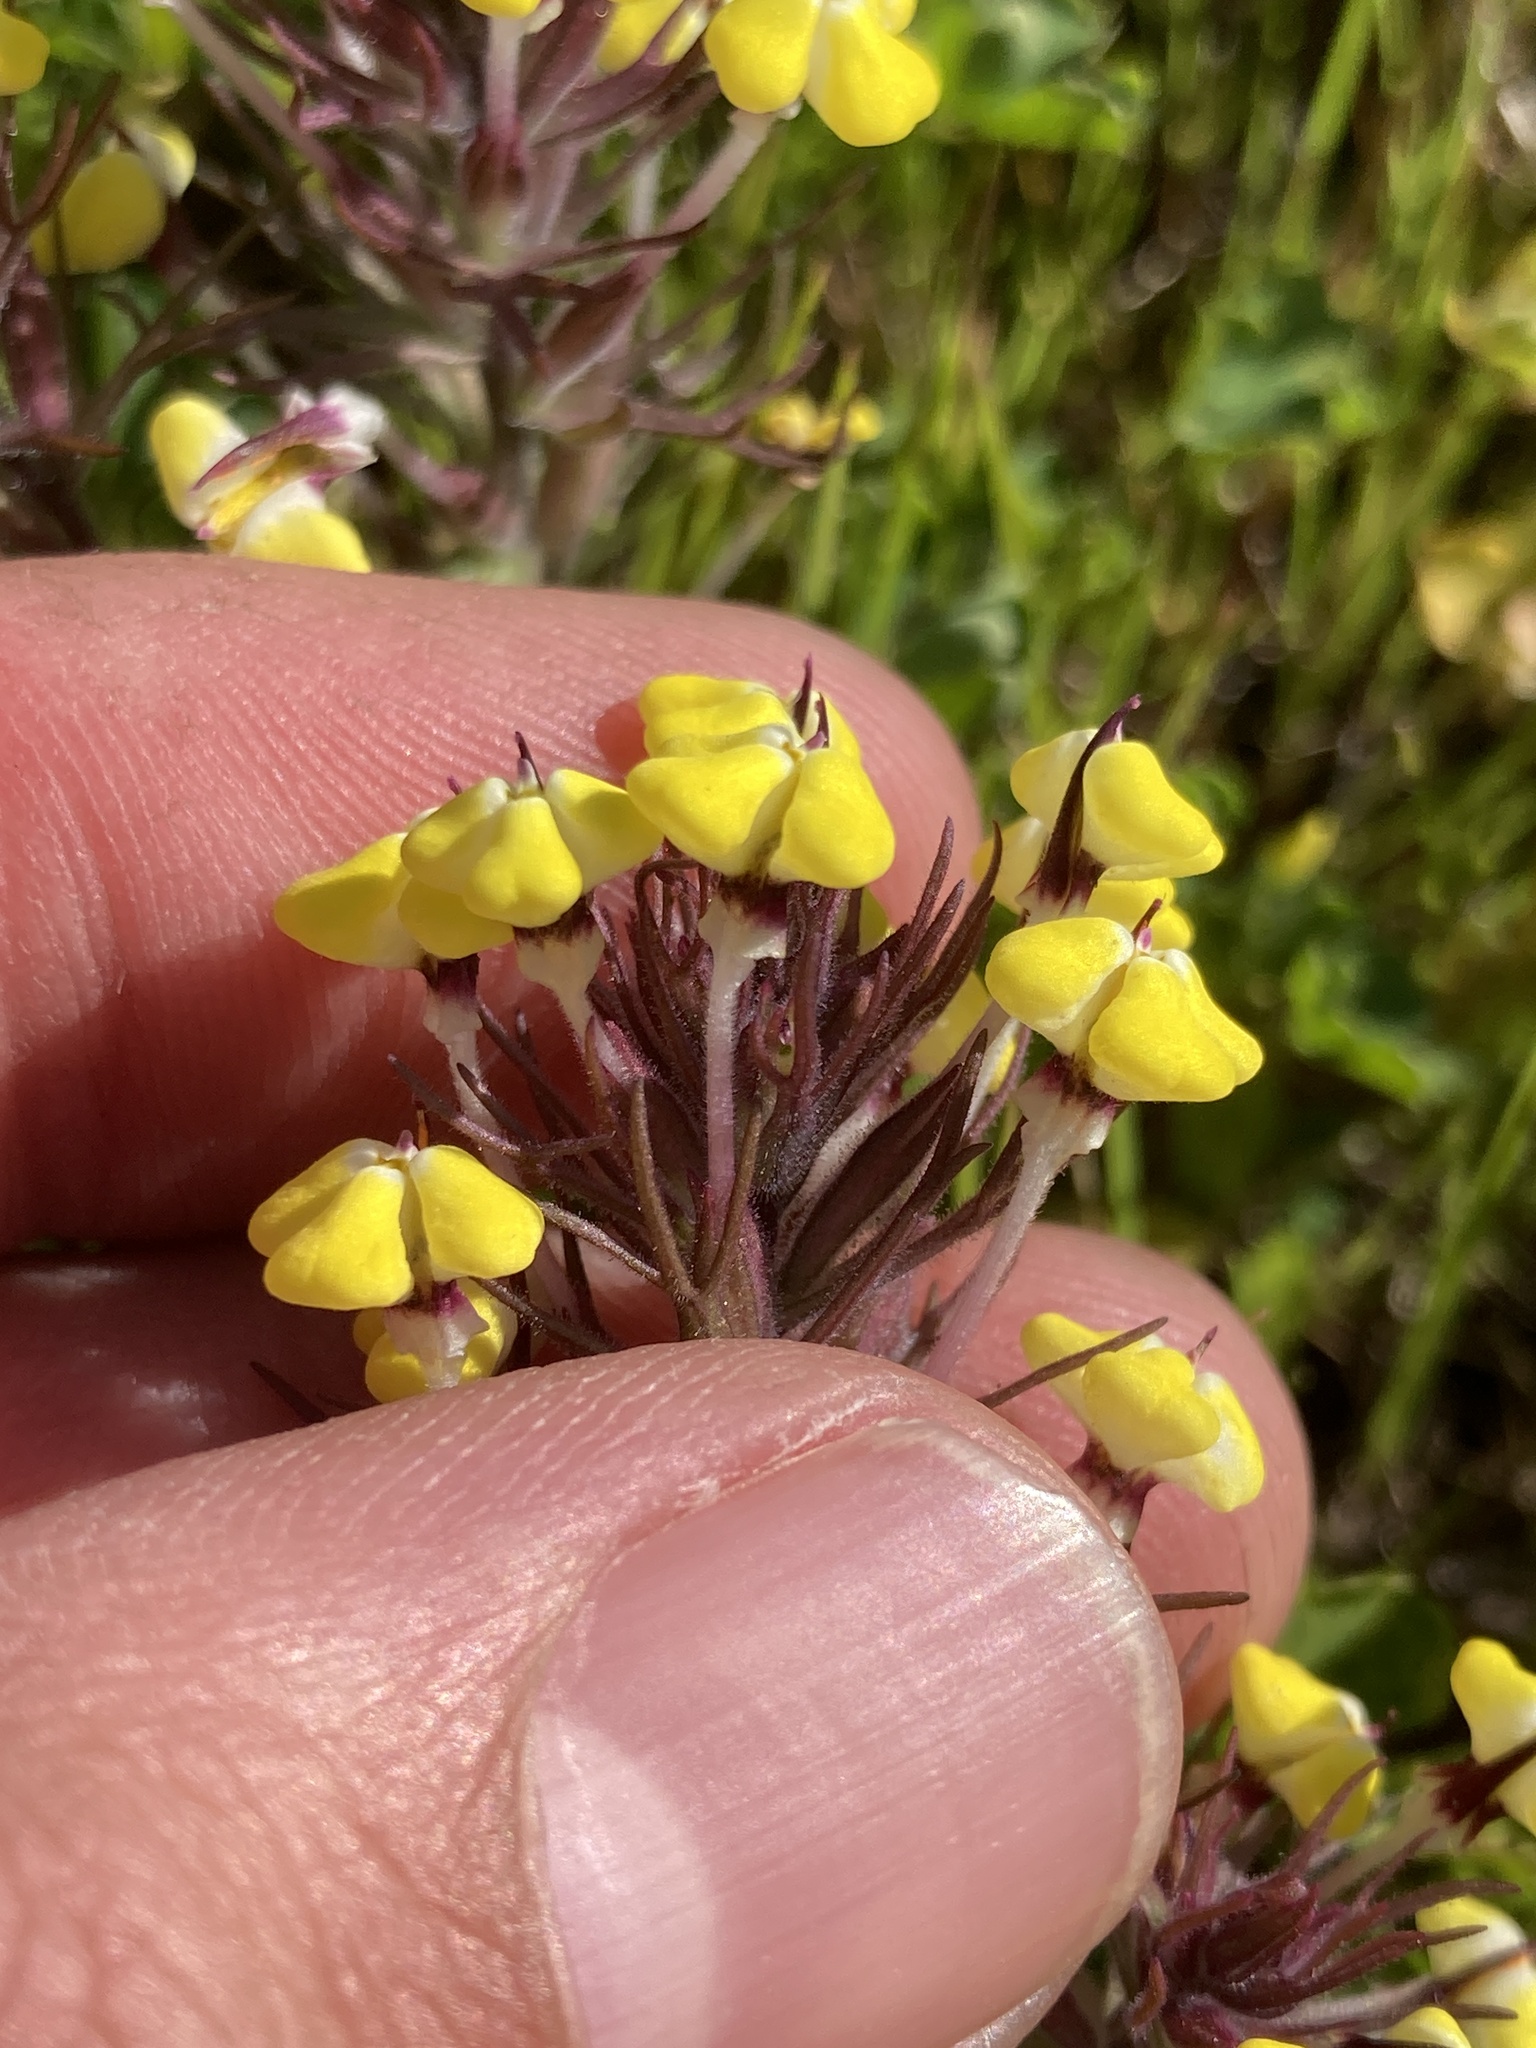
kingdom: Plantae
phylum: Tracheophyta
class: Magnoliopsida
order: Lamiales
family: Orobanchaceae
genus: Triphysaria
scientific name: Triphysaria eriantha
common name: Johnny-tuck
